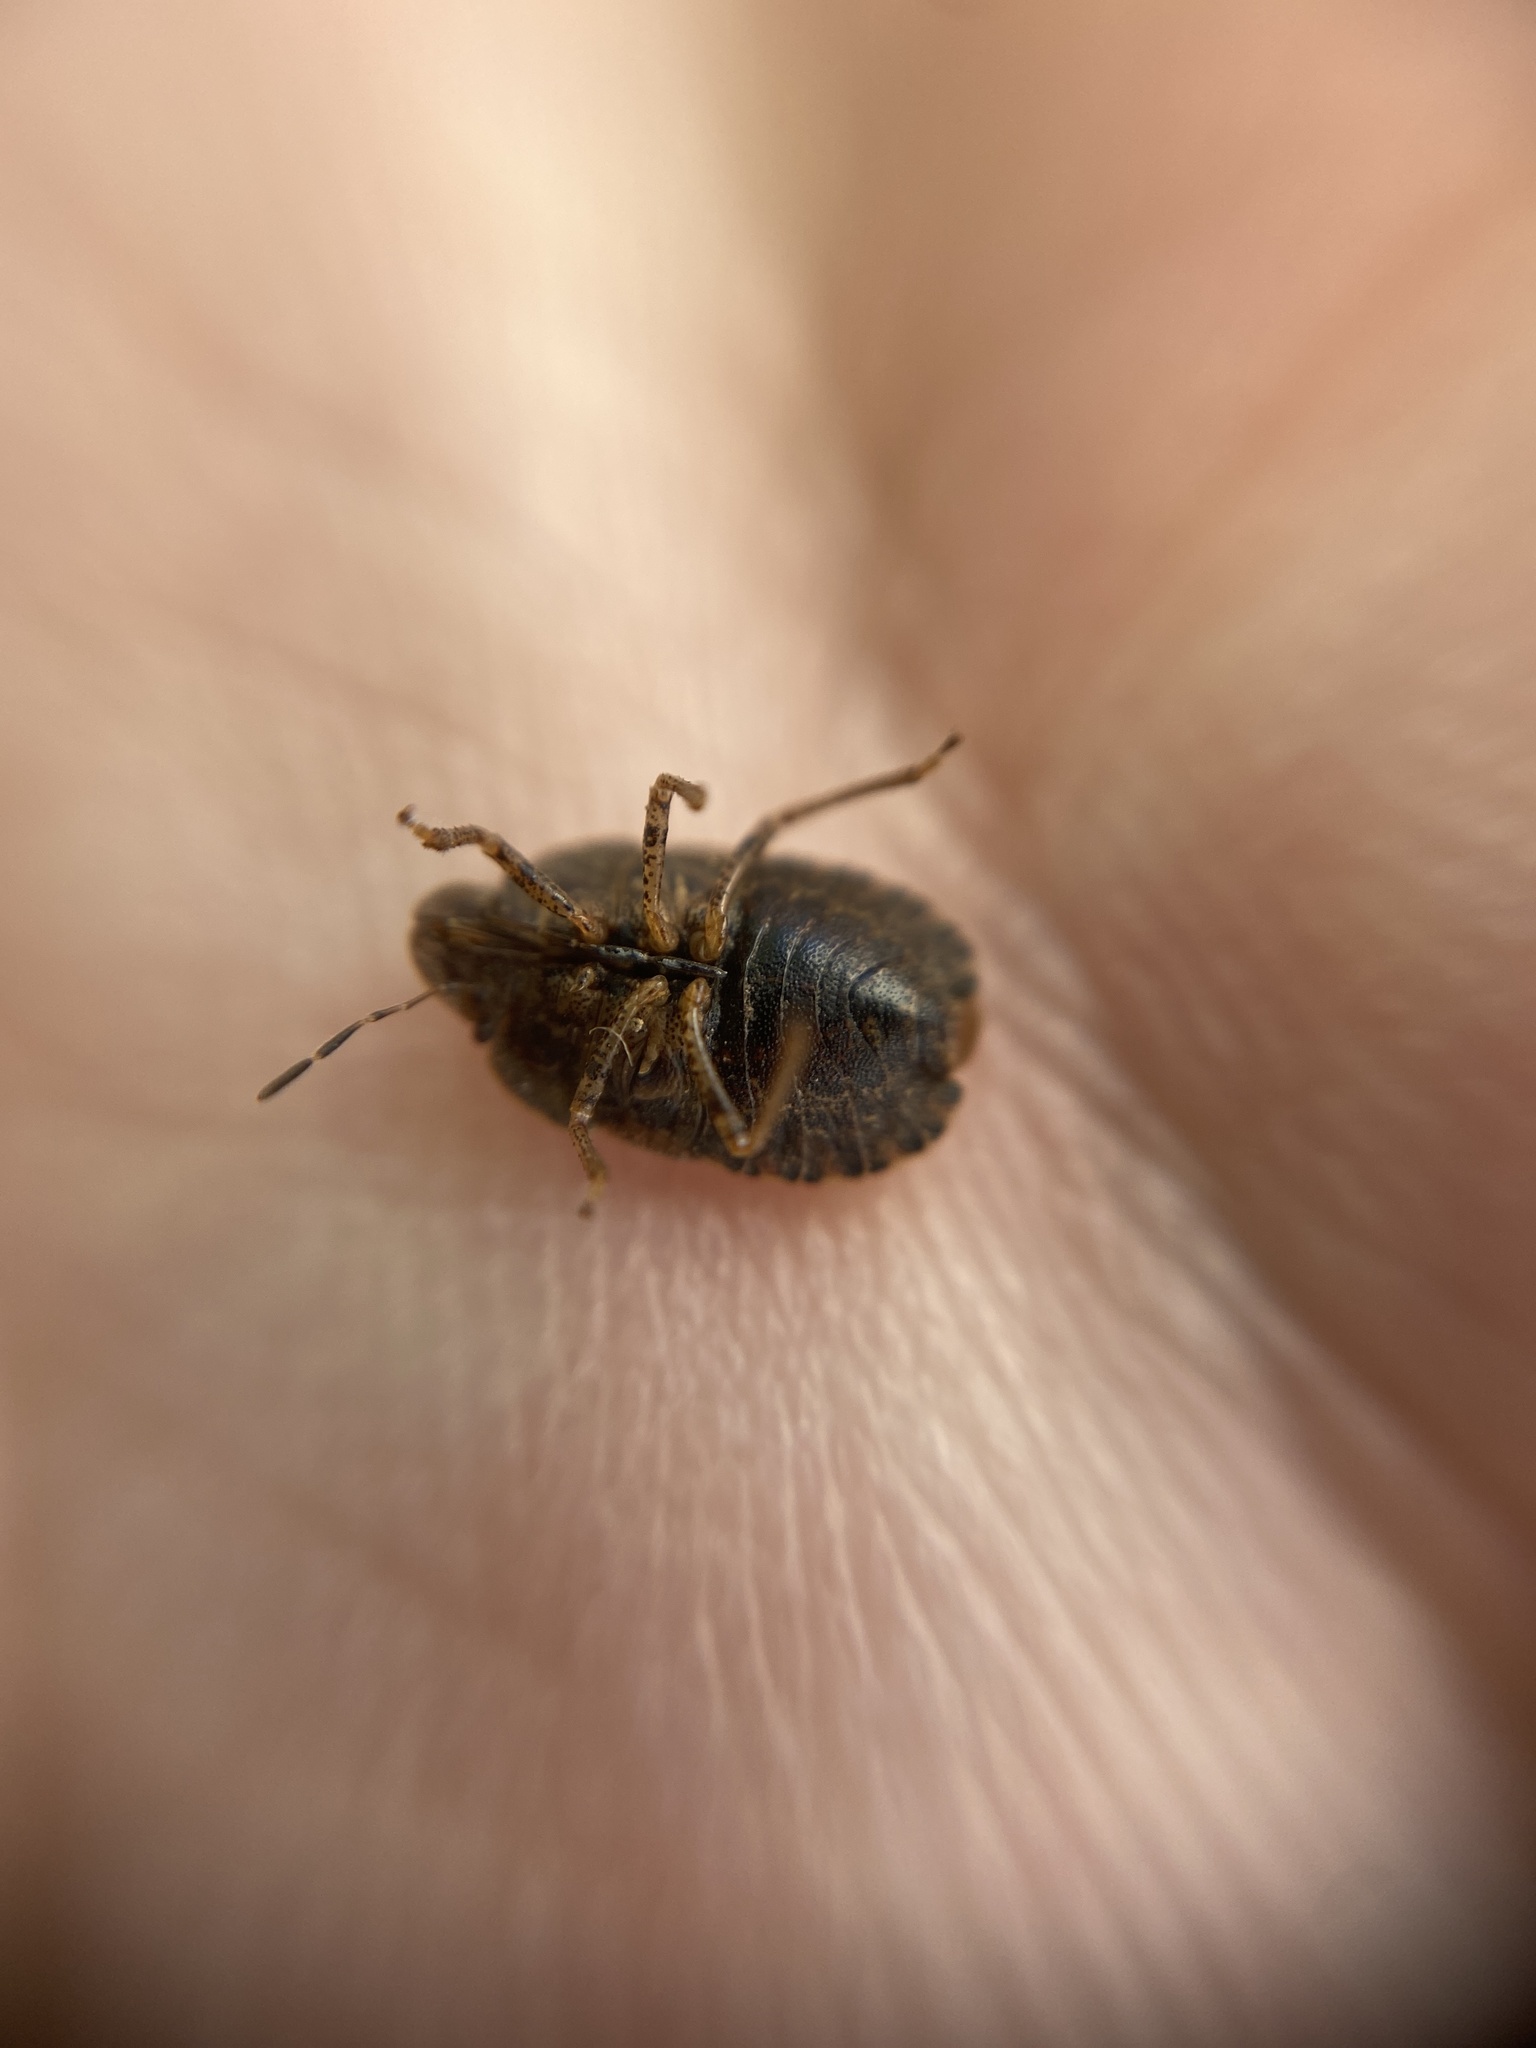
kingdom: Animalia
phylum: Arthropoda
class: Insecta
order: Hemiptera
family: Pentatomidae
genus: Sciocoris
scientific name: Sciocoris homalonotus
